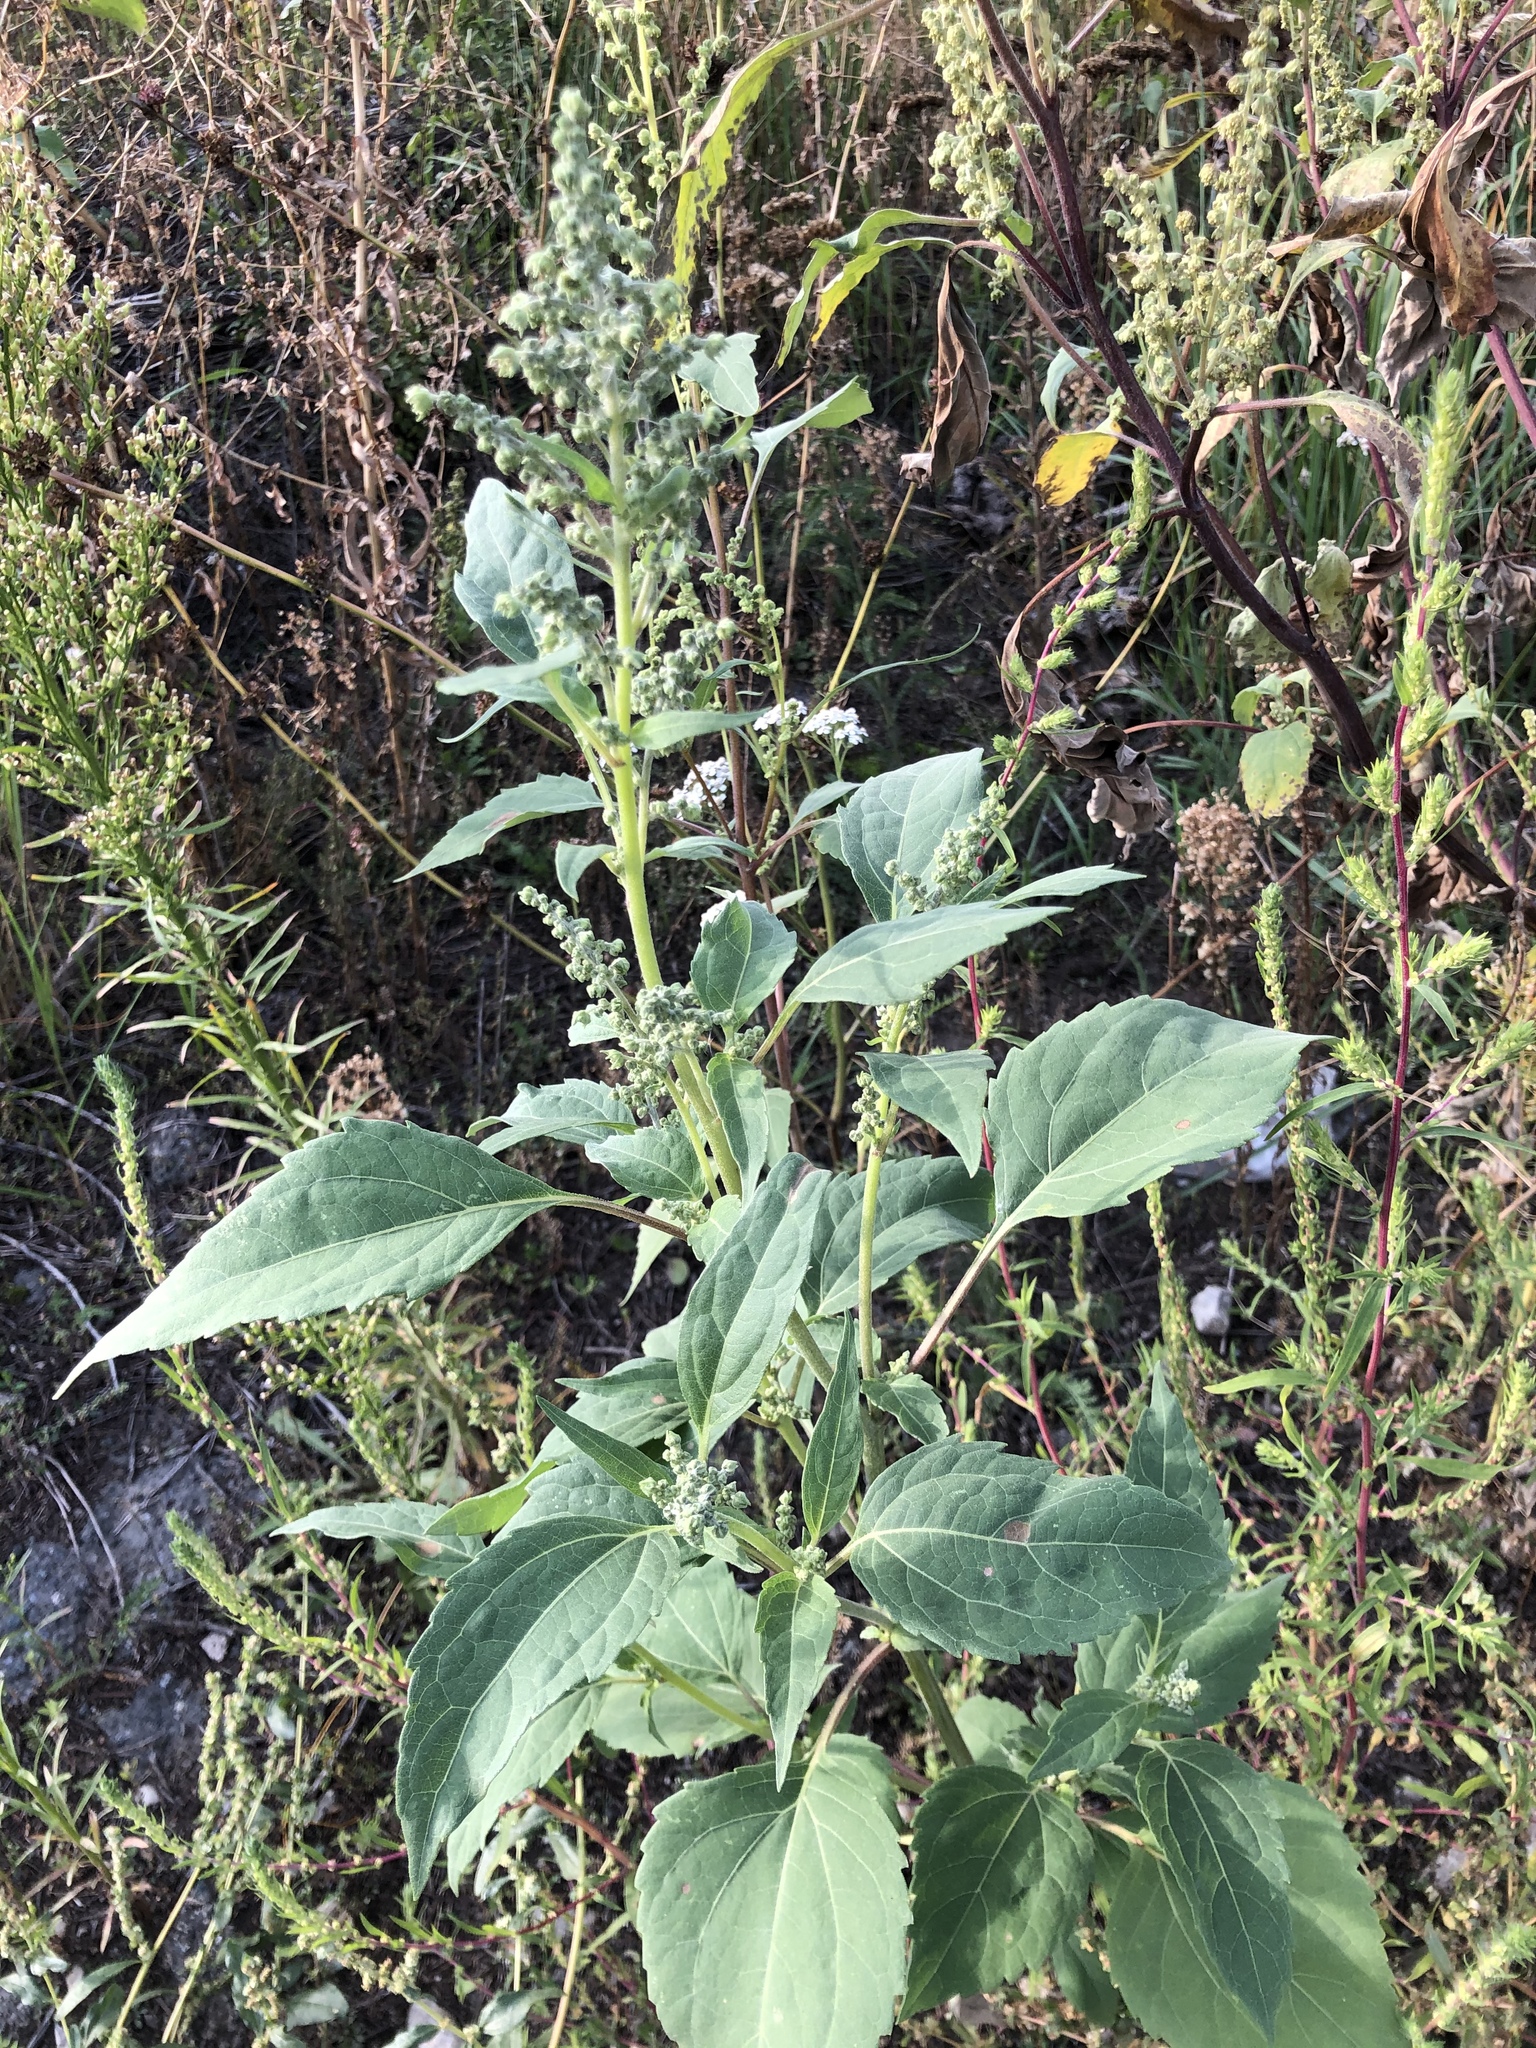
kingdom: Plantae
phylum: Tracheophyta
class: Magnoliopsida
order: Asterales
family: Asteraceae
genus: Cyclachaena
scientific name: Cyclachaena xanthiifolia
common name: Giant sumpweed
